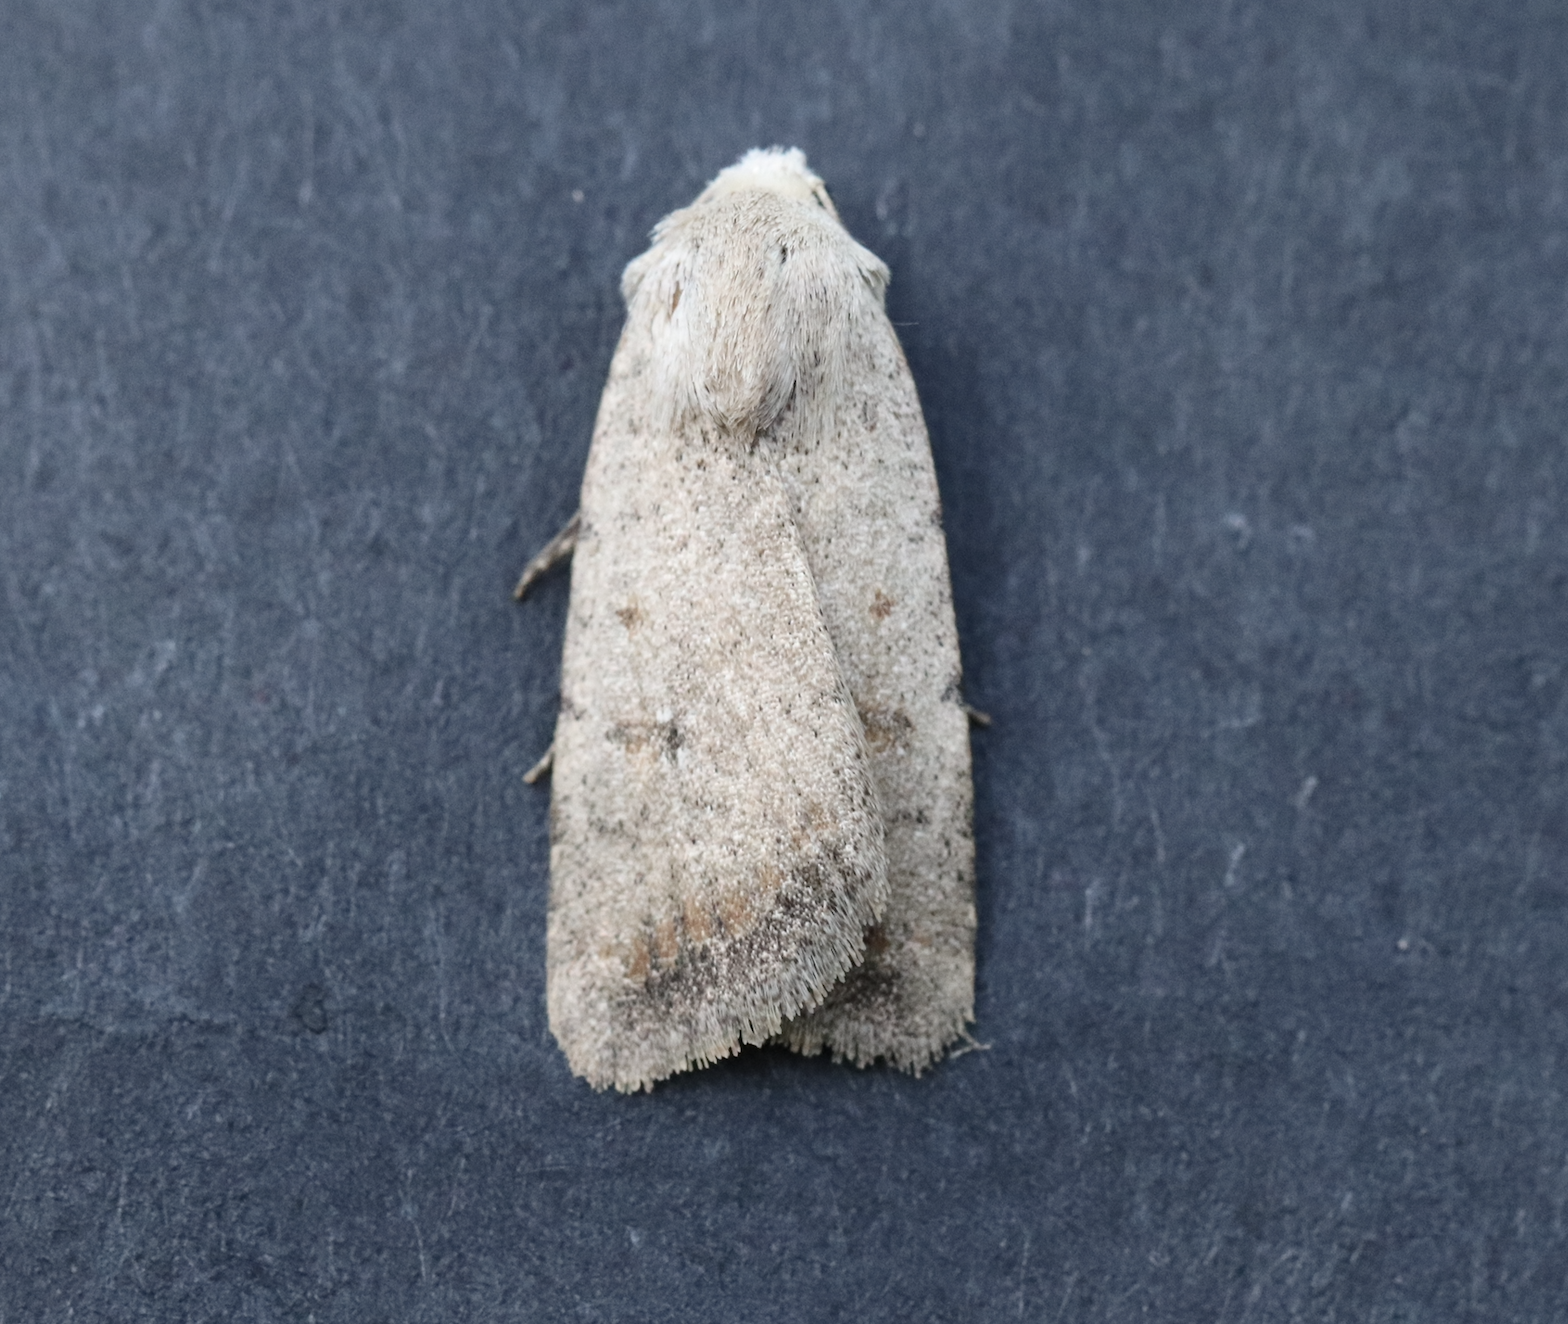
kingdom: Animalia
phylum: Arthropoda
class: Insecta
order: Lepidoptera
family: Noctuidae
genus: Caradrina
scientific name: Caradrina montana
